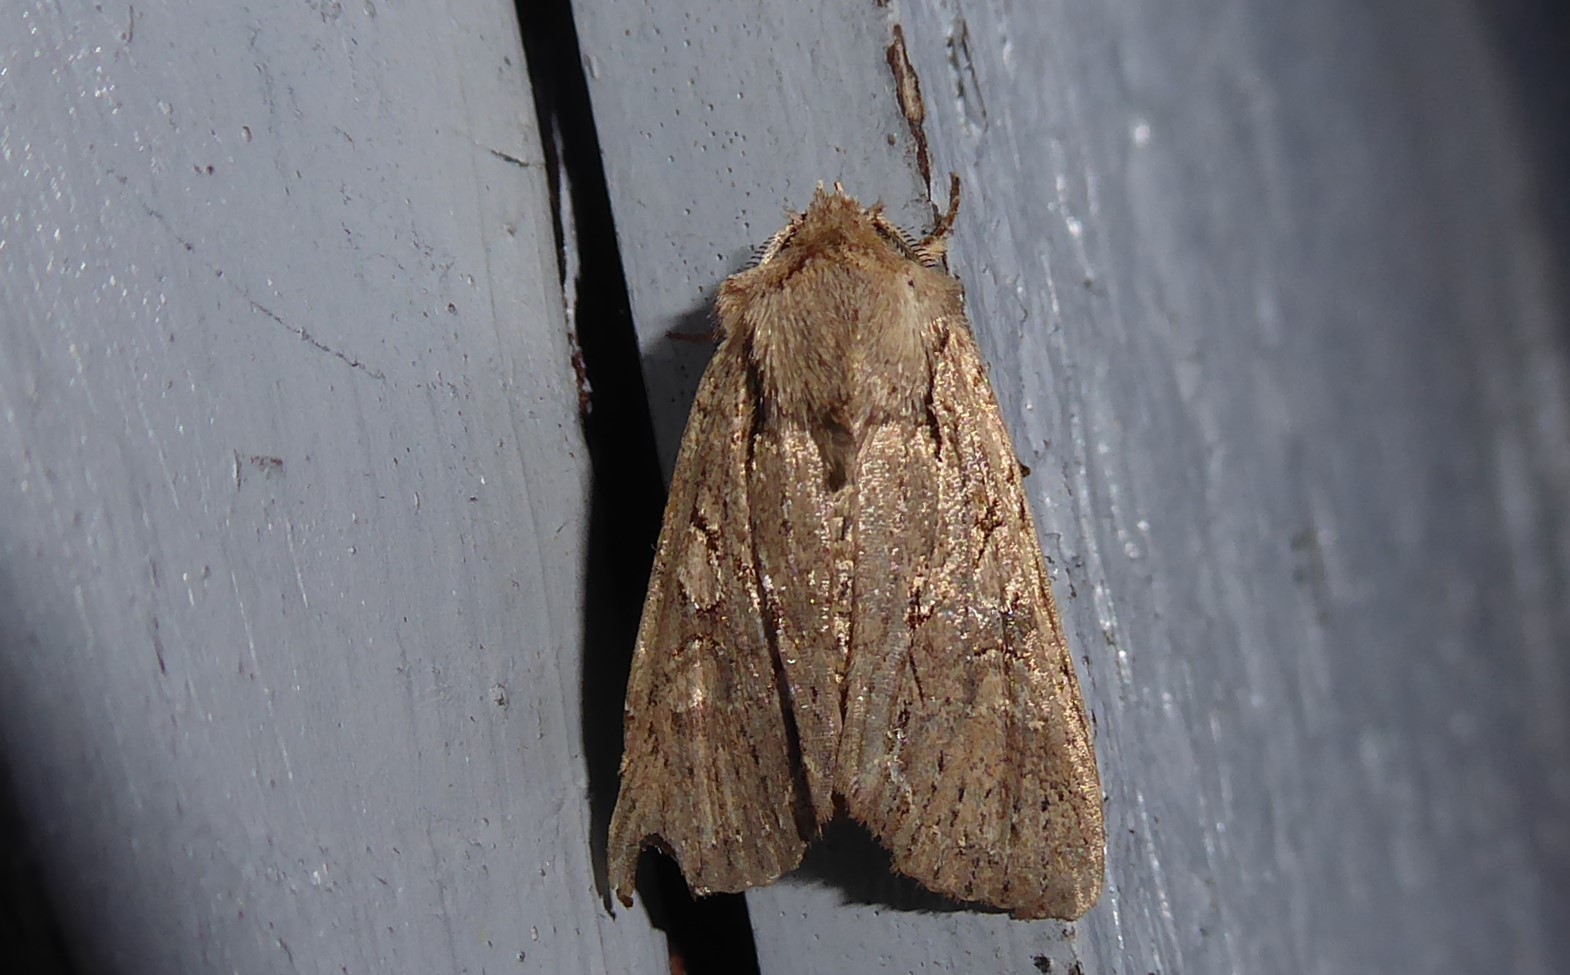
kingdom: Animalia
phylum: Arthropoda
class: Insecta
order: Lepidoptera
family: Noctuidae
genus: Ichneutica
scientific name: Ichneutica
